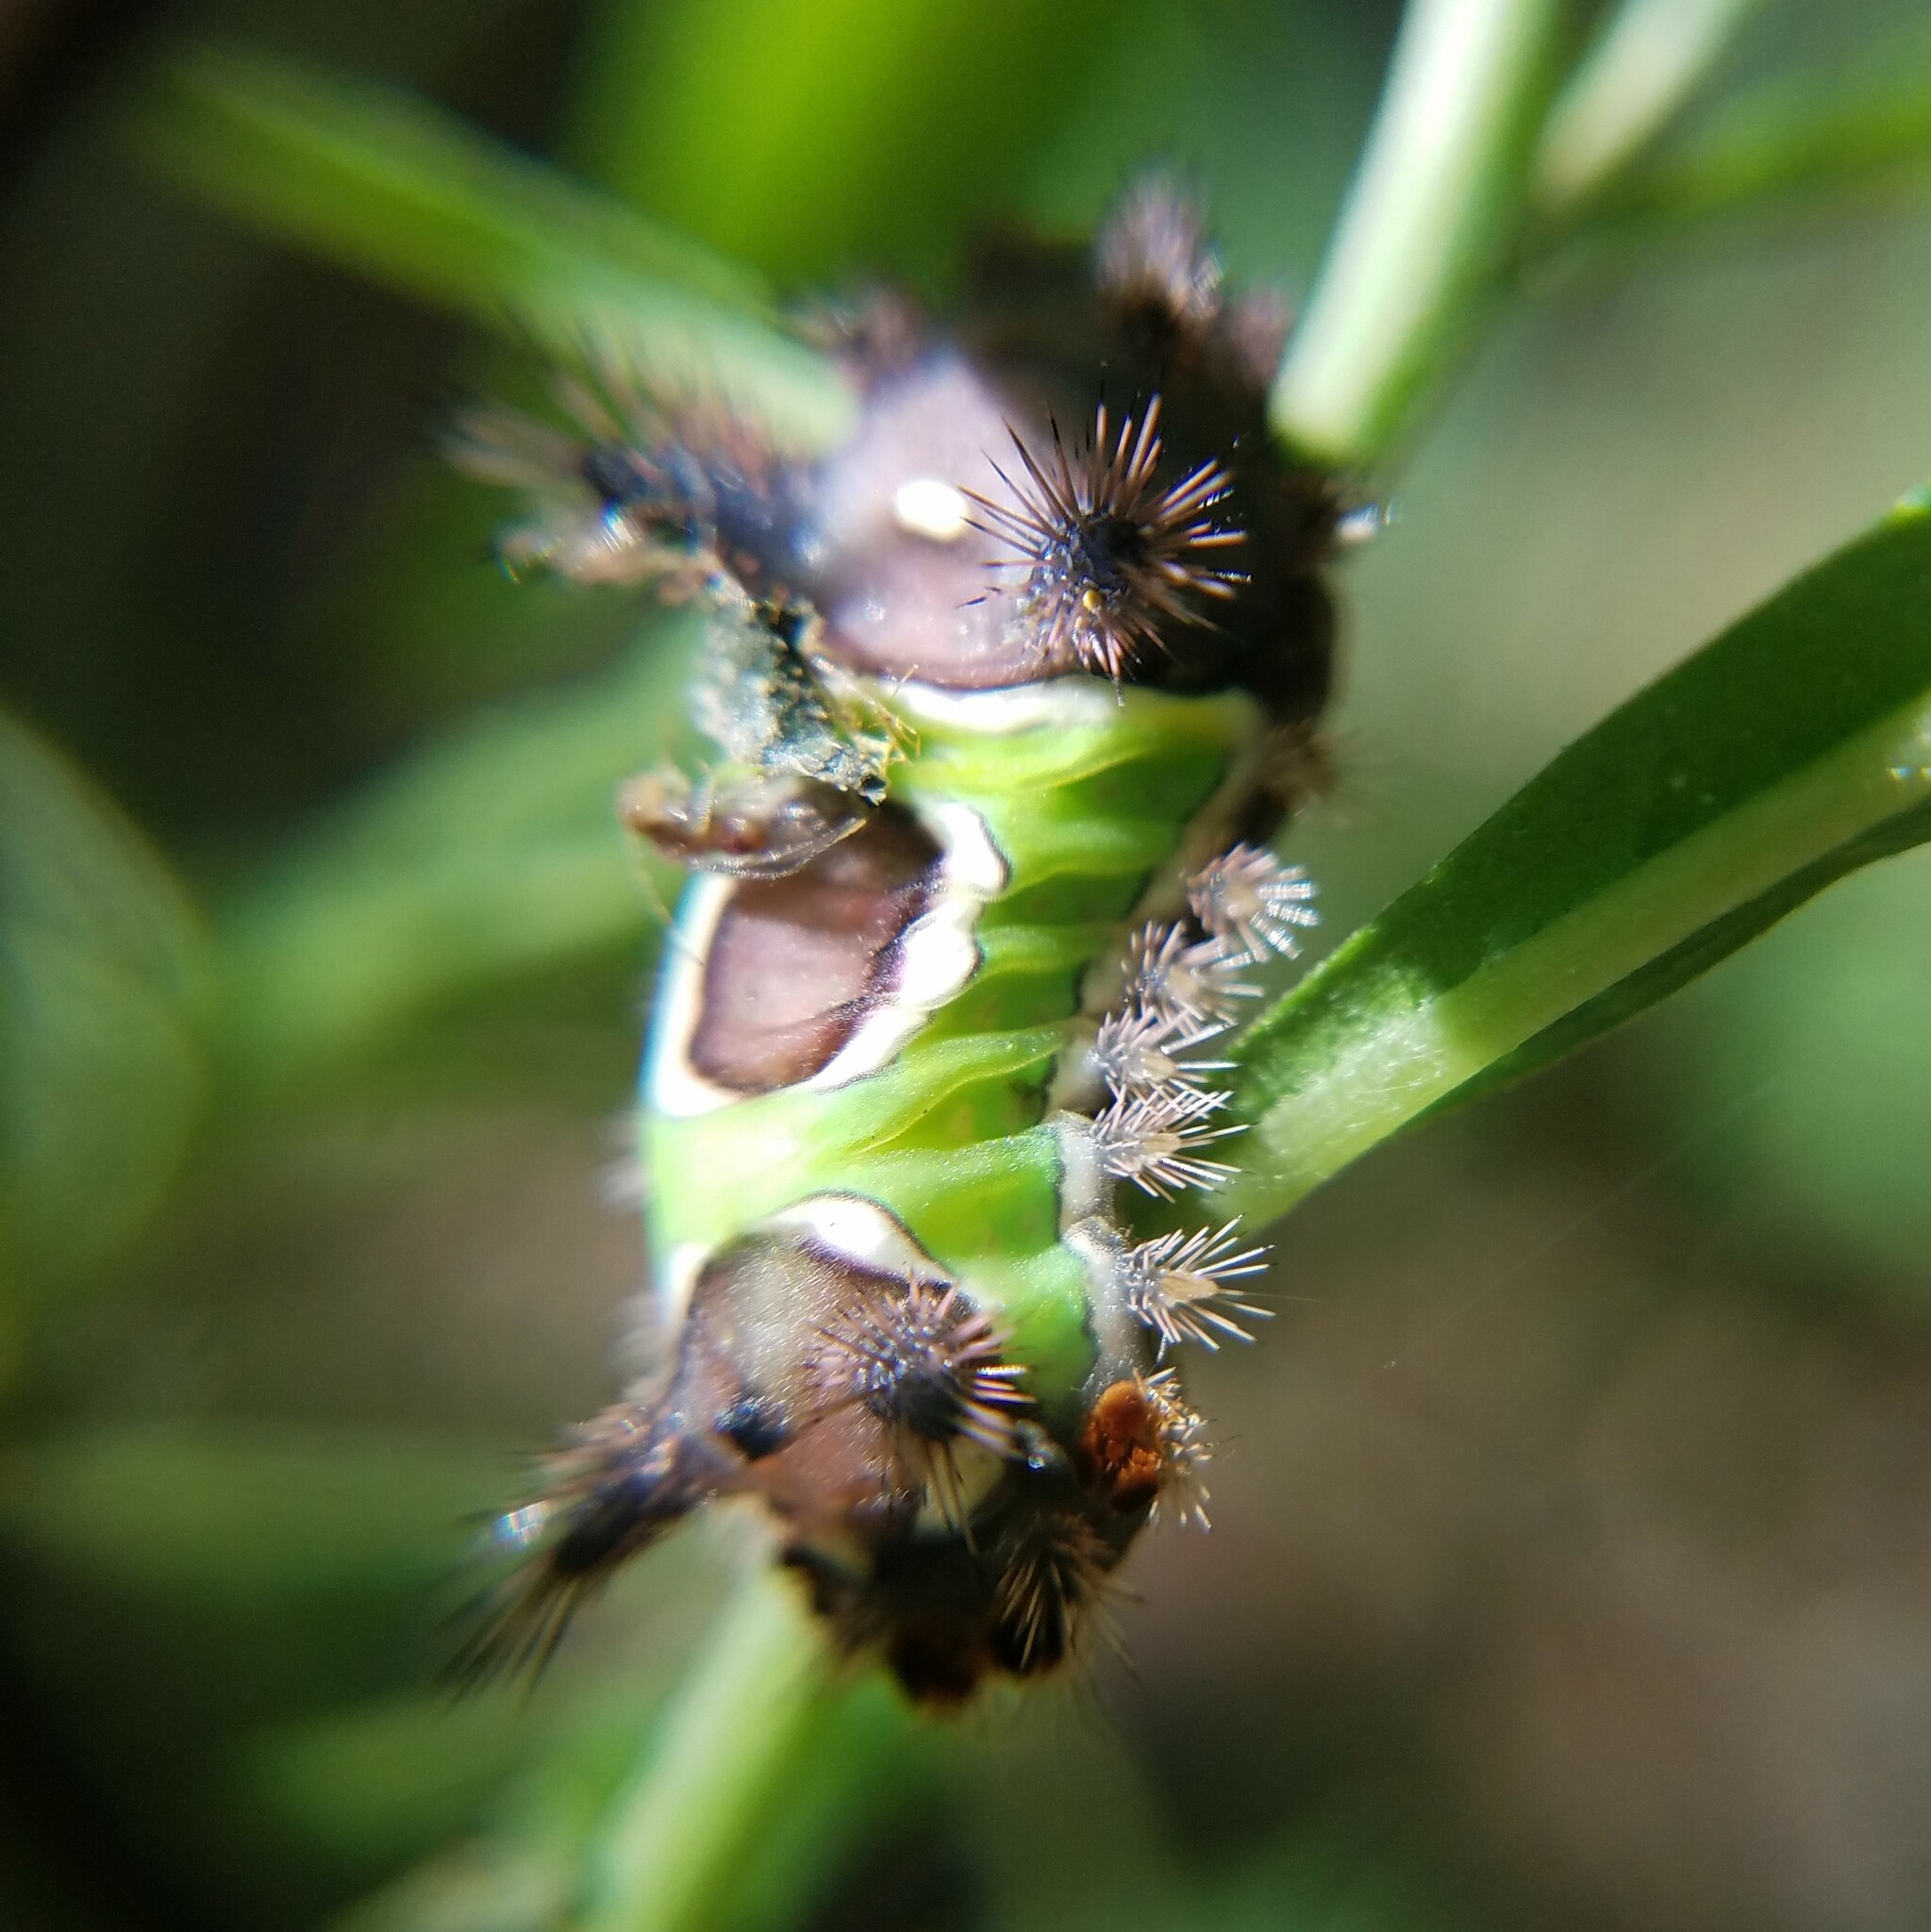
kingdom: Animalia
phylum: Arthropoda
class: Insecta
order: Lepidoptera
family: Limacodidae
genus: Acharia
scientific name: Acharia stimulea
